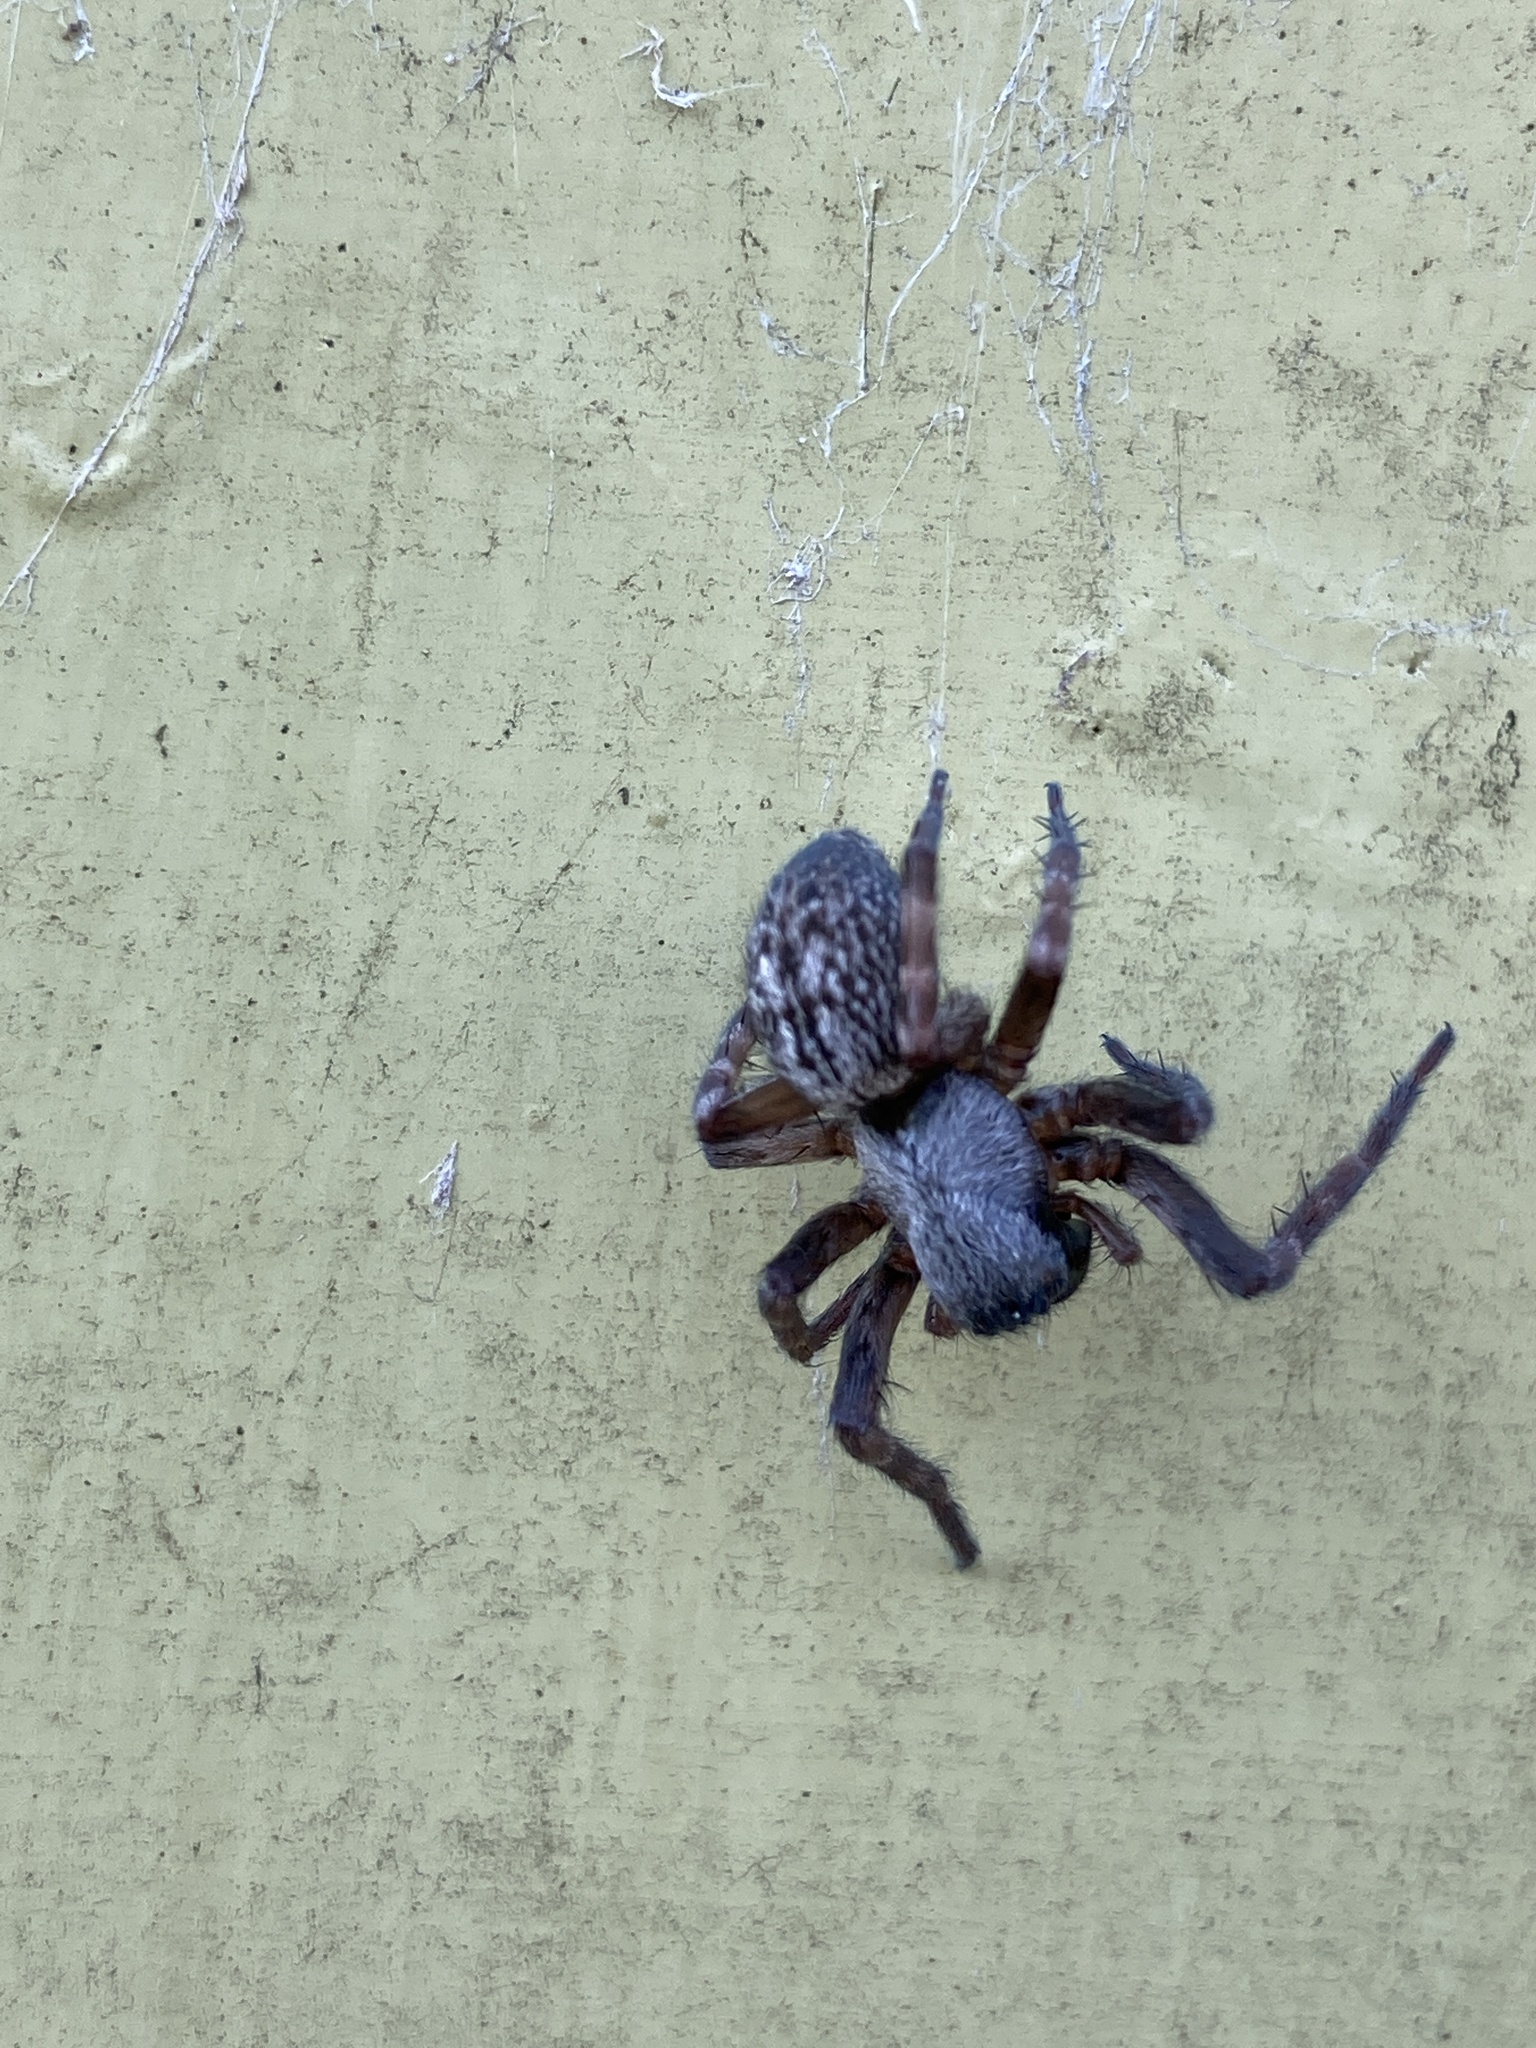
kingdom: Animalia
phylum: Arthropoda
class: Arachnida
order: Araneae
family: Desidae
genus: Badumna
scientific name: Badumna longinqua
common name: Gray house spider
